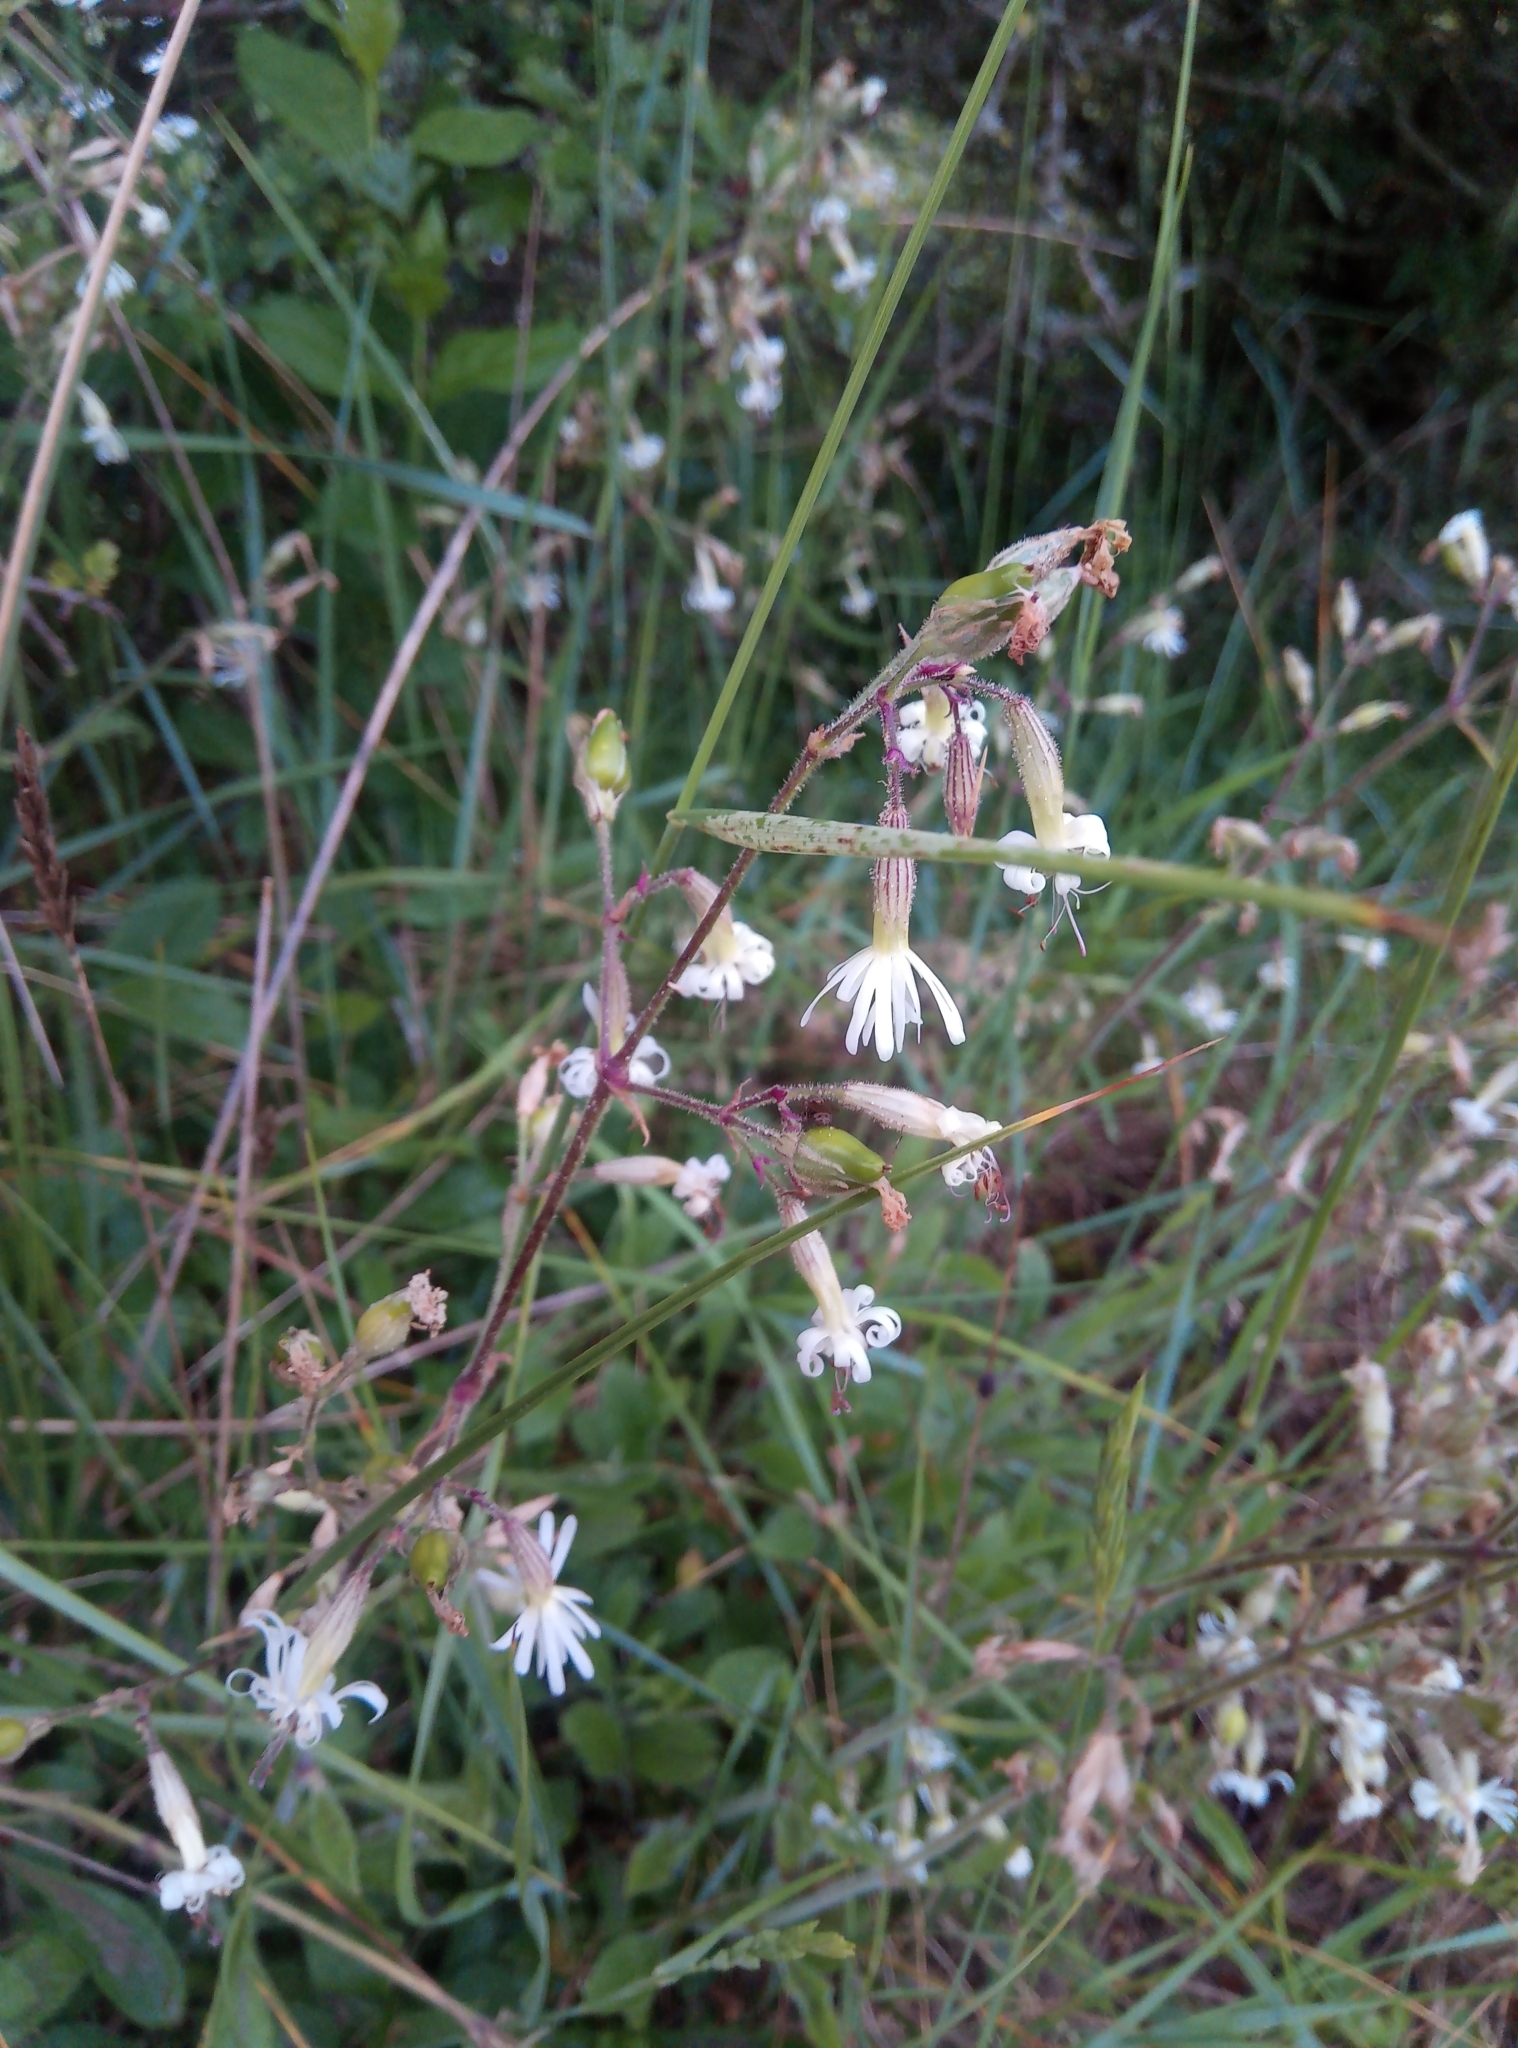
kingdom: Plantae
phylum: Tracheophyta
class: Magnoliopsida
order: Caryophyllales
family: Caryophyllaceae
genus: Silene
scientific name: Silene nutans
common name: Nottingham catchfly
